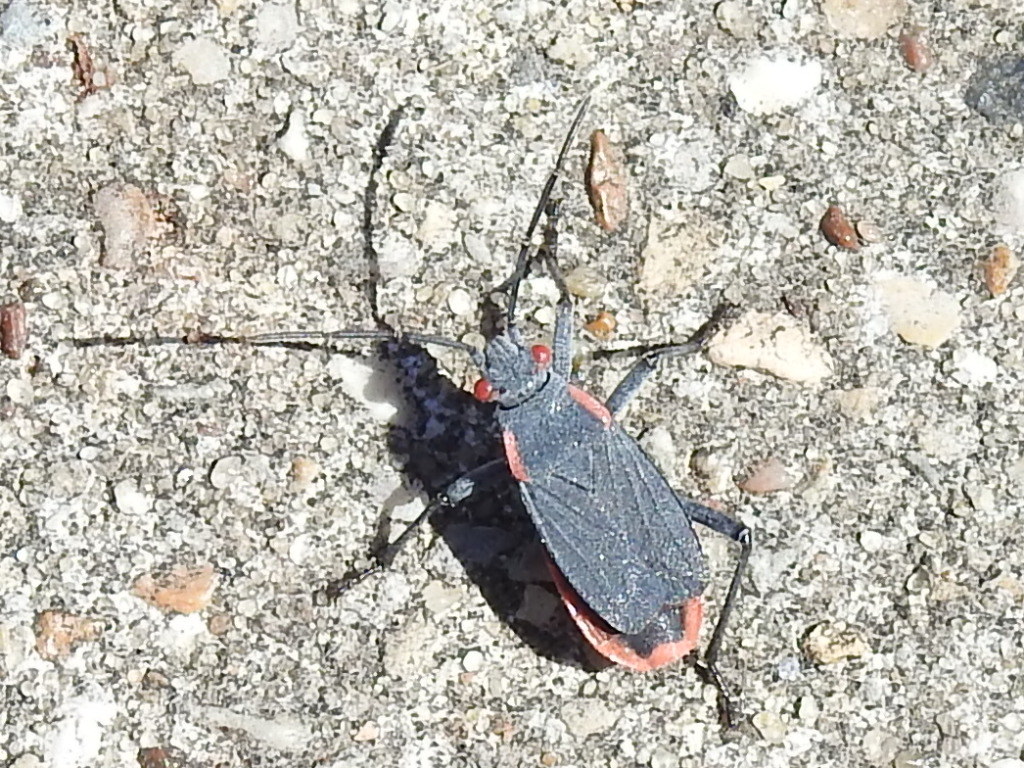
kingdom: Animalia
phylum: Arthropoda
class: Insecta
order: Hemiptera
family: Rhopalidae
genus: Jadera
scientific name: Jadera haematoloma
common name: Red-shouldered bug
